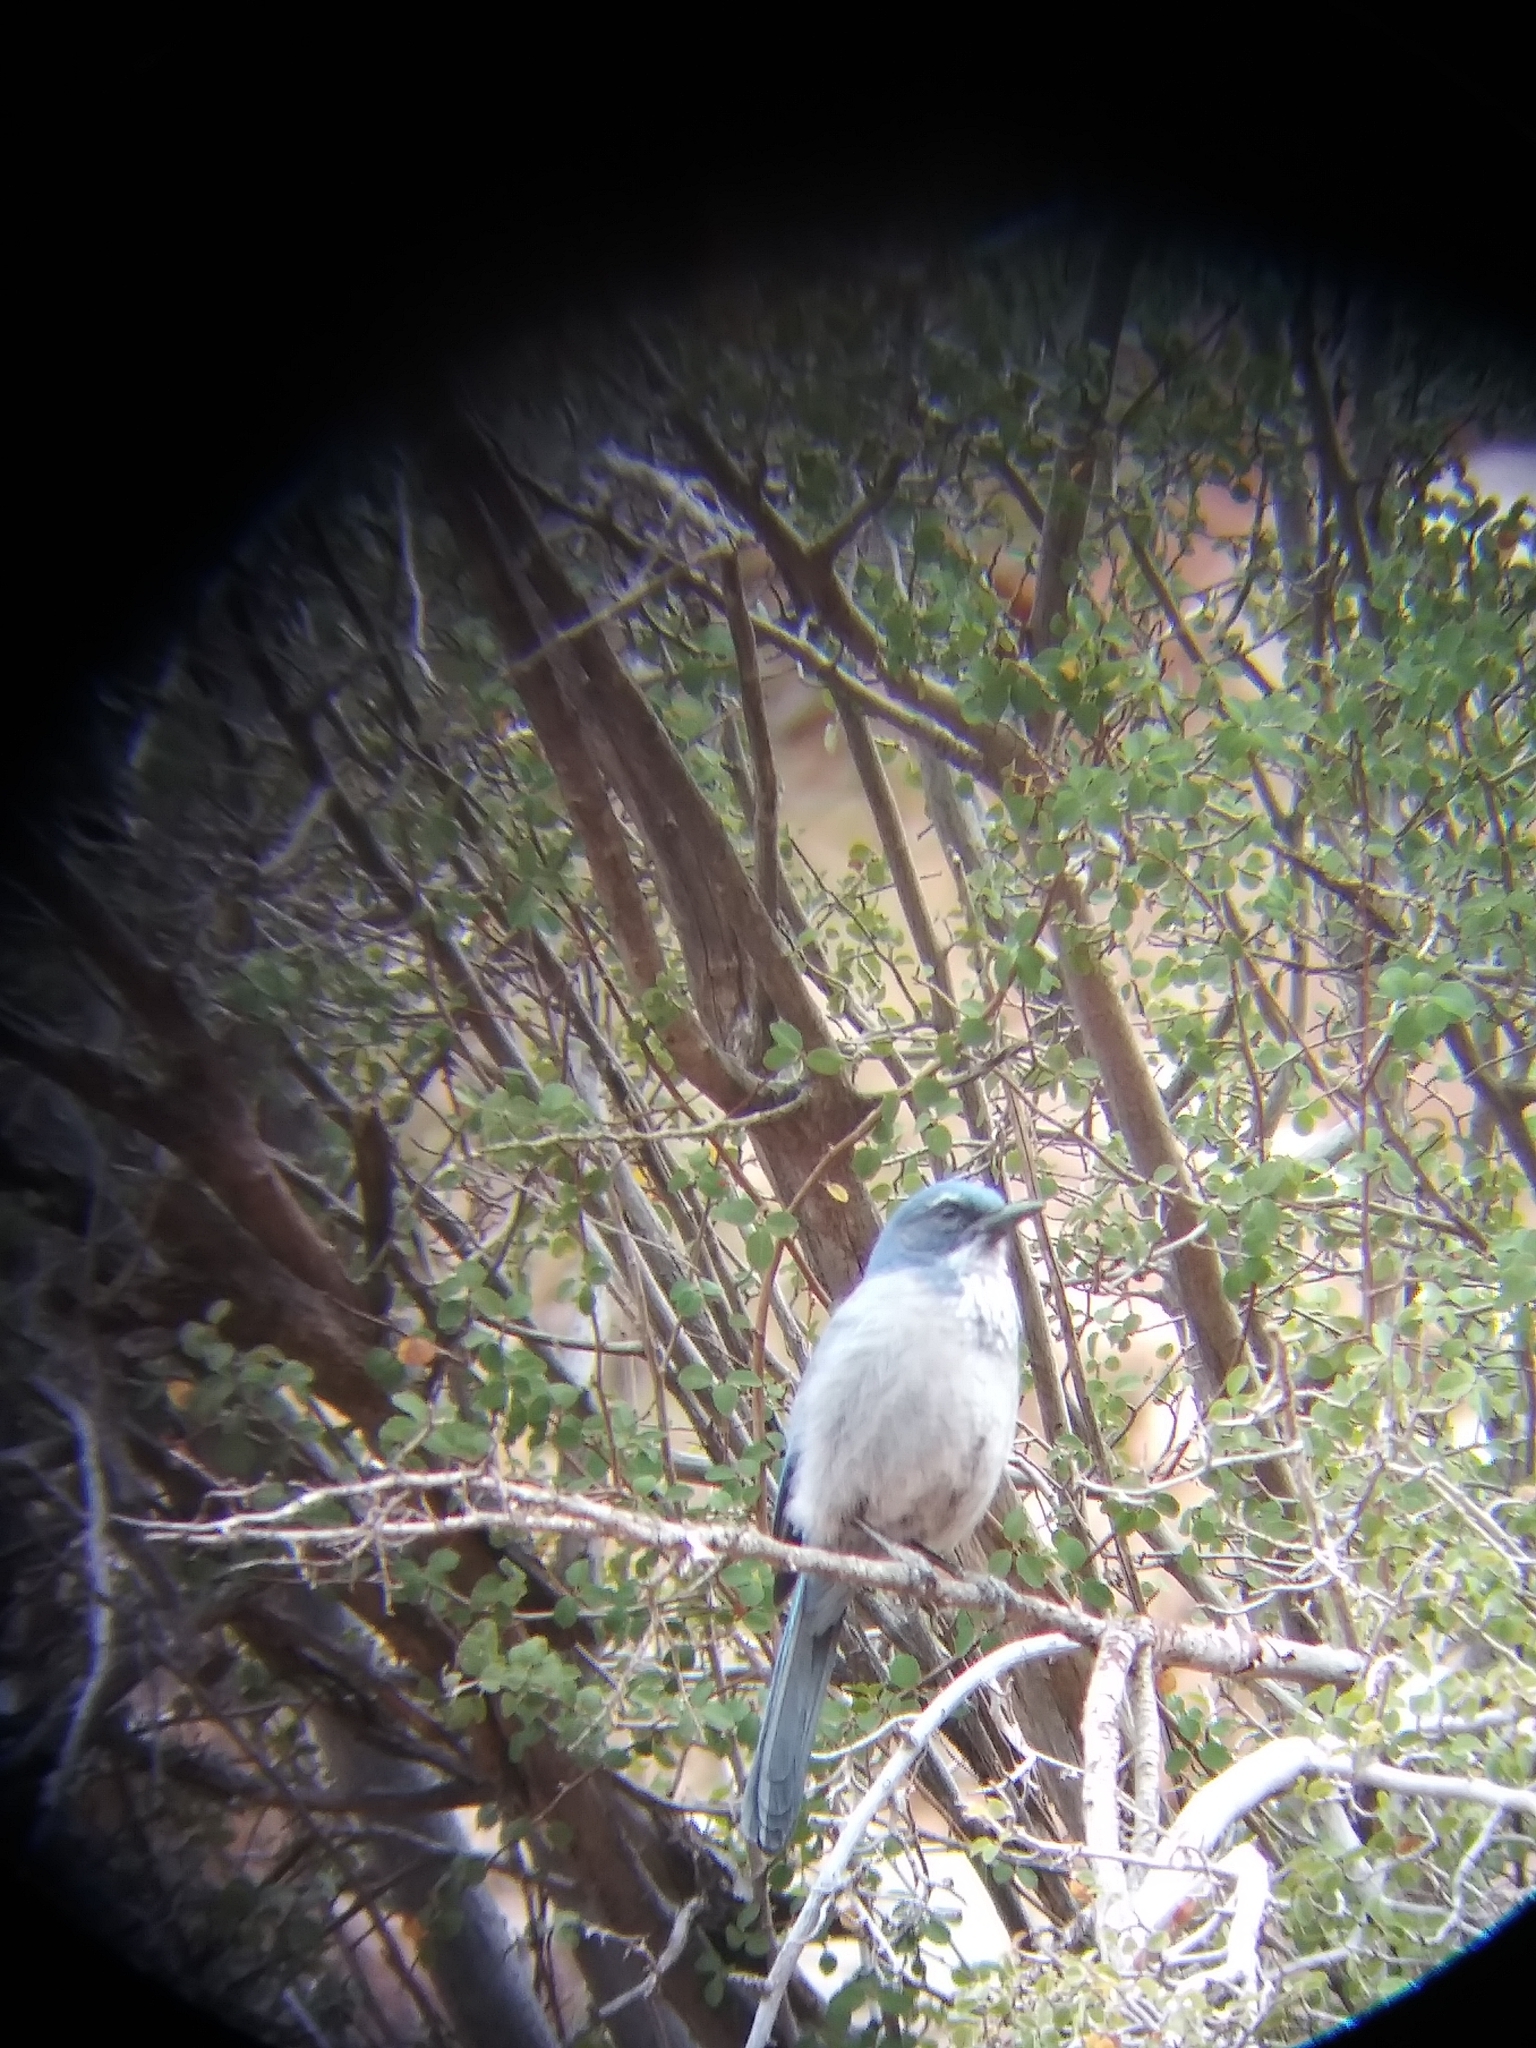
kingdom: Animalia
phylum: Chordata
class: Aves
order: Passeriformes
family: Corvidae
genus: Aphelocoma
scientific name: Aphelocoma woodhouseii
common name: Woodhouse's scrub-jay
